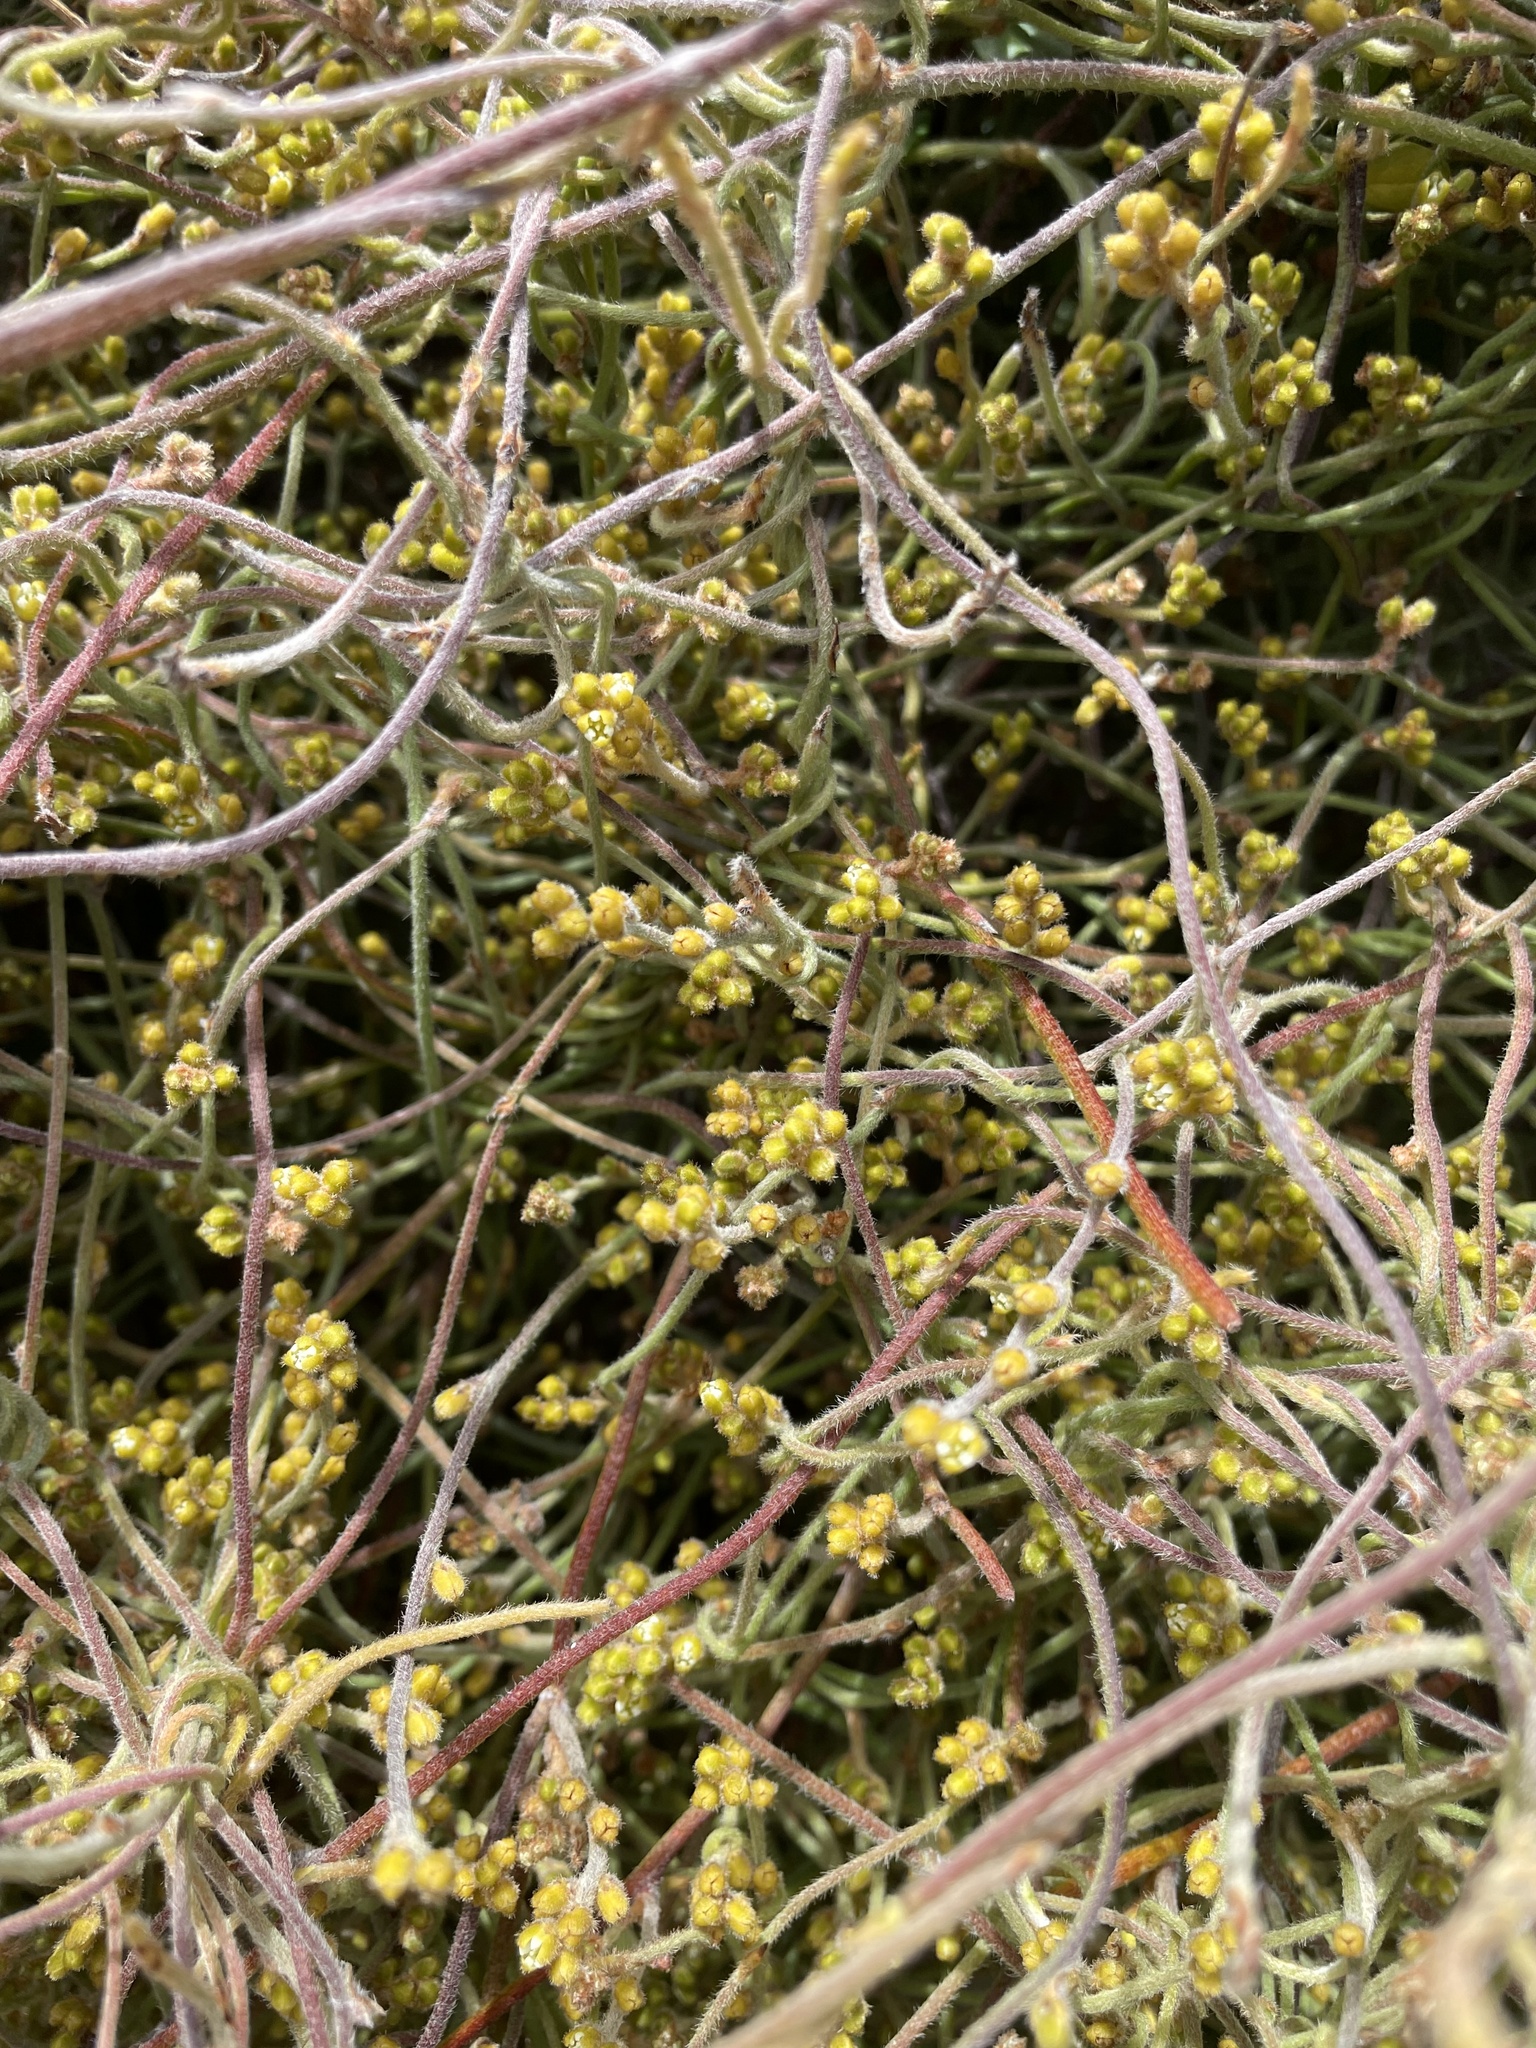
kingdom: Plantae
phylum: Tracheophyta
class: Magnoliopsida
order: Laurales
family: Lauraceae
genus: Cassytha
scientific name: Cassytha pubescens
